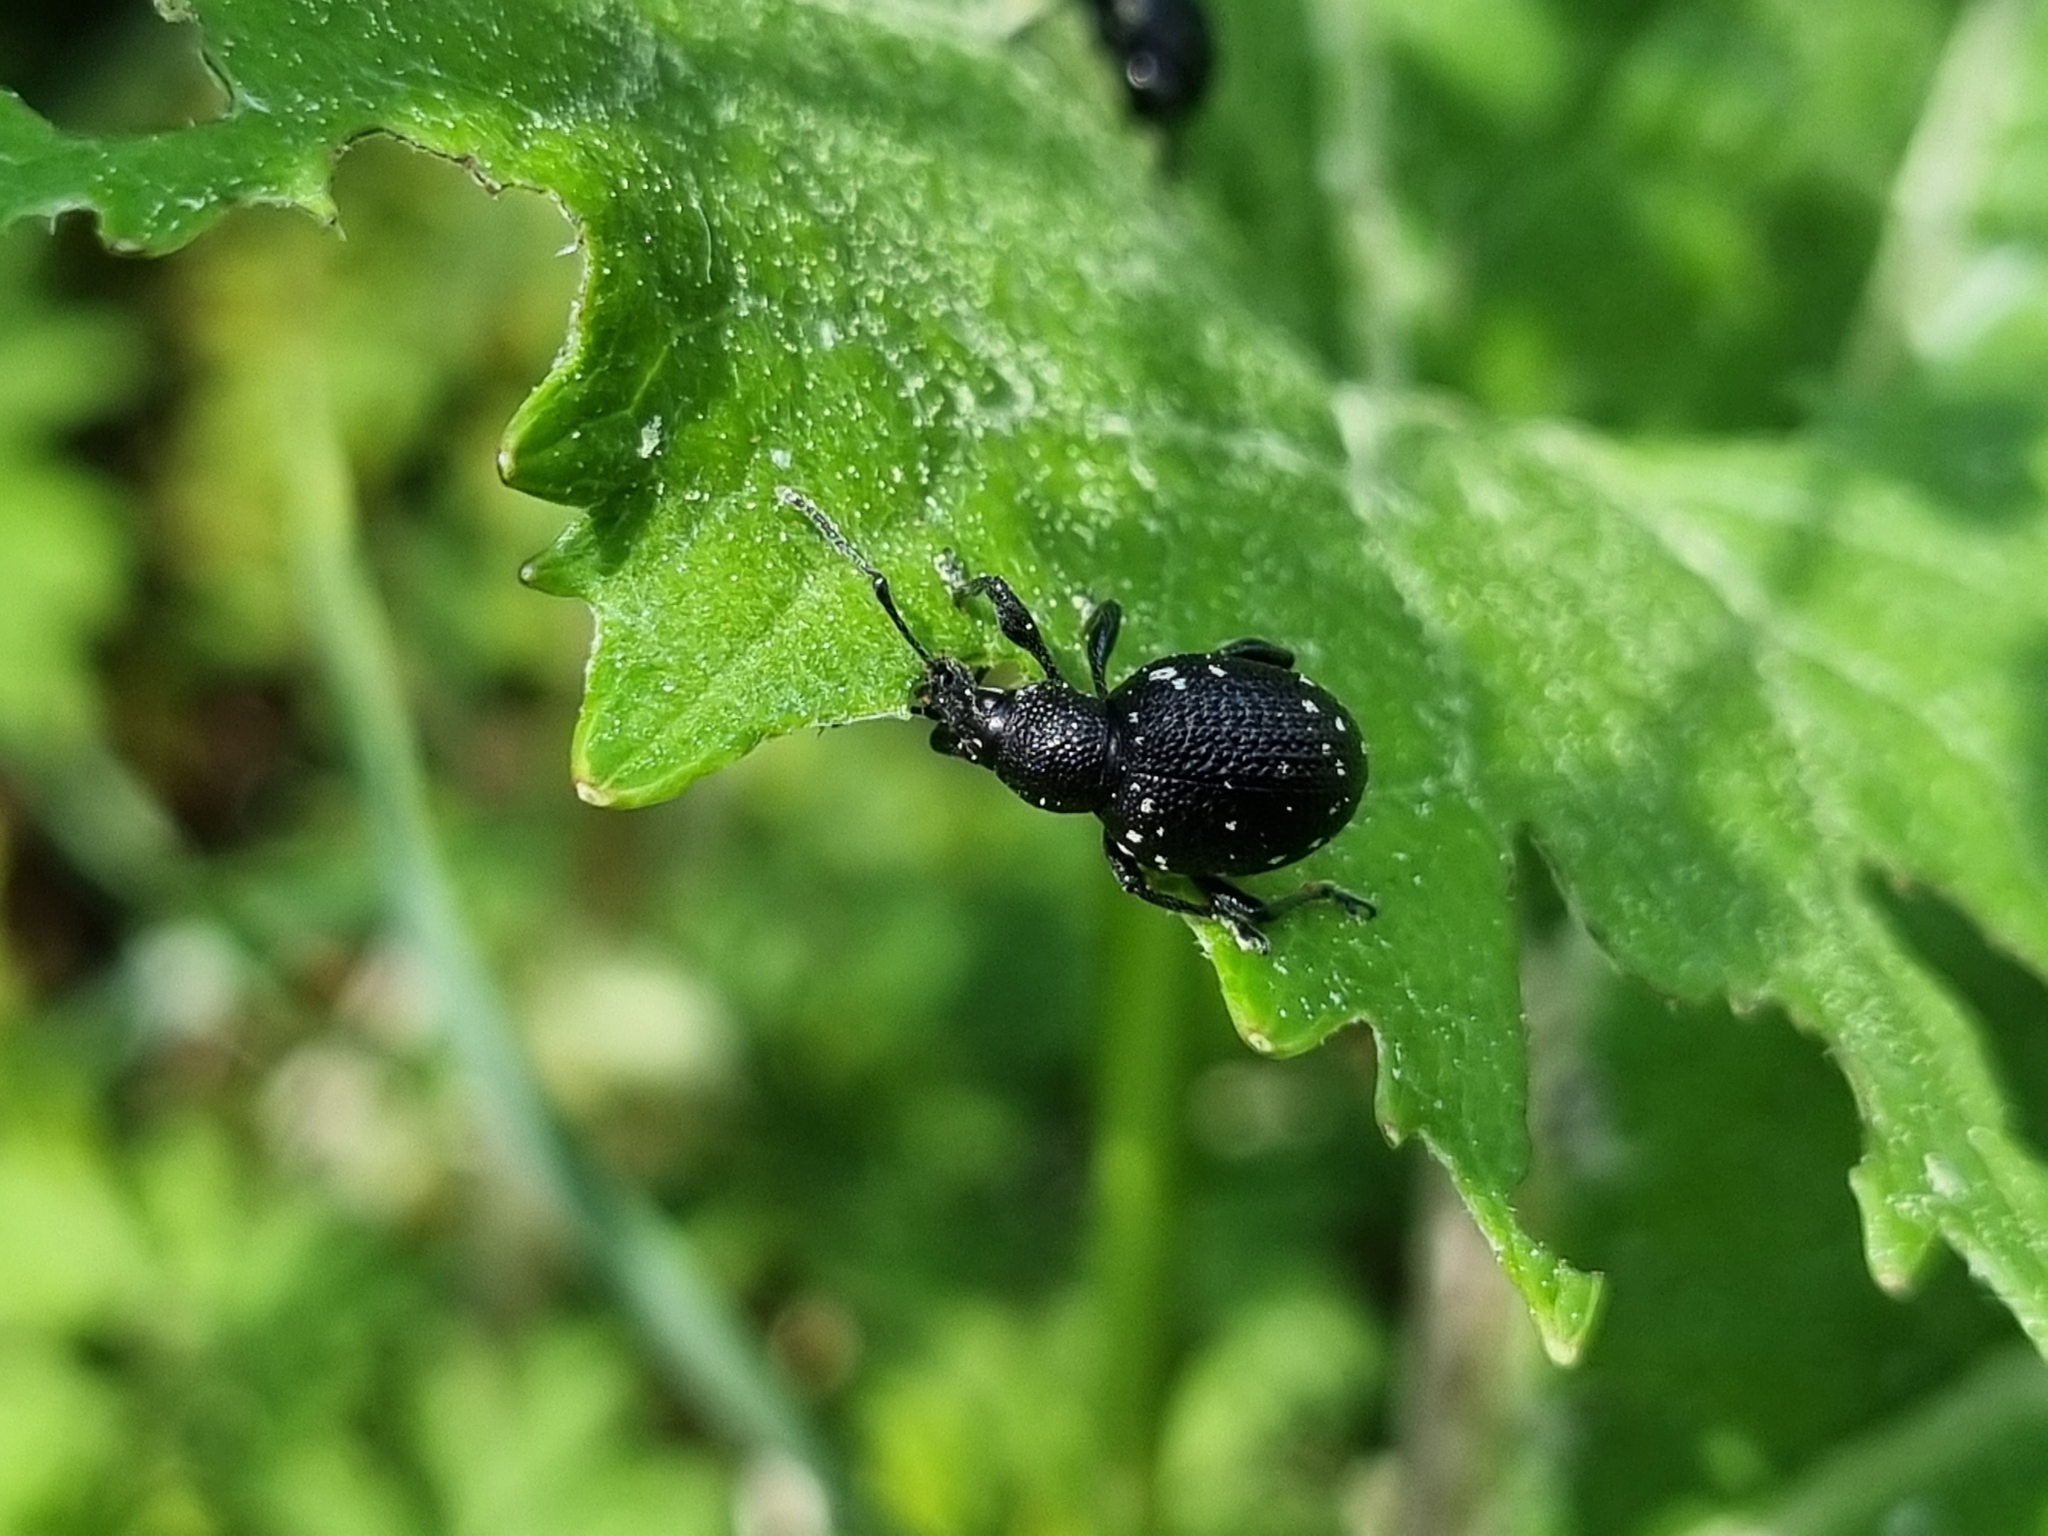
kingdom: Animalia
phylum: Arthropoda
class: Insecta
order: Coleoptera
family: Curculionidae
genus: Otiorhynchus
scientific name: Otiorhynchus gemmatus
